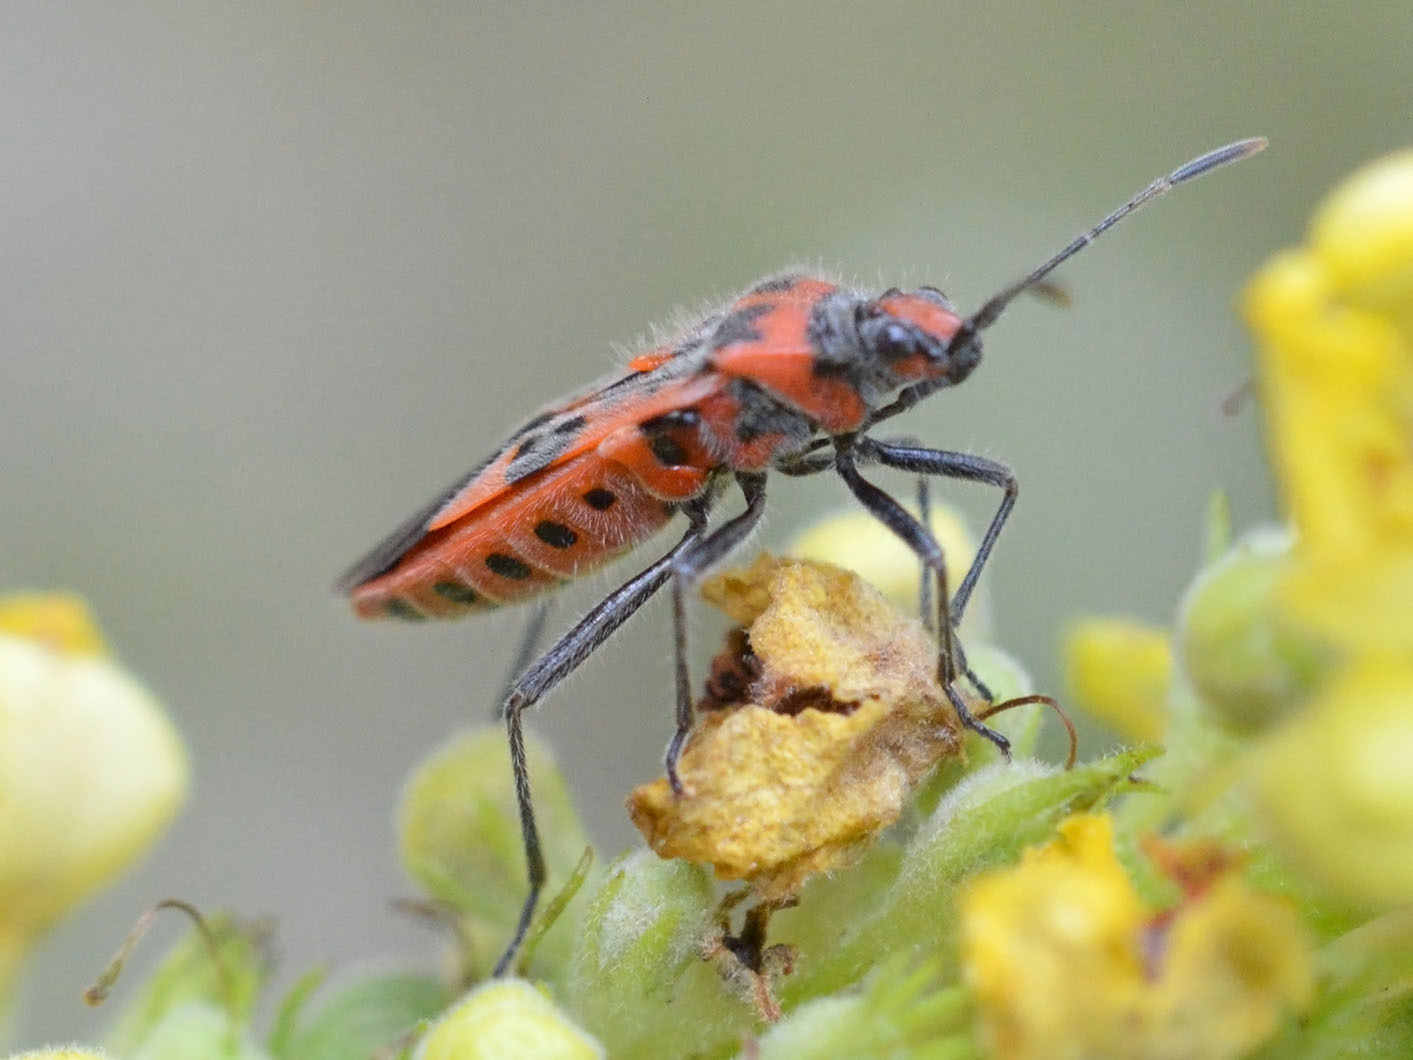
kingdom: Animalia
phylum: Arthropoda
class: Insecta
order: Hemiptera
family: Rhopalidae
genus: Corizus
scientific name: Corizus hyoscyami
